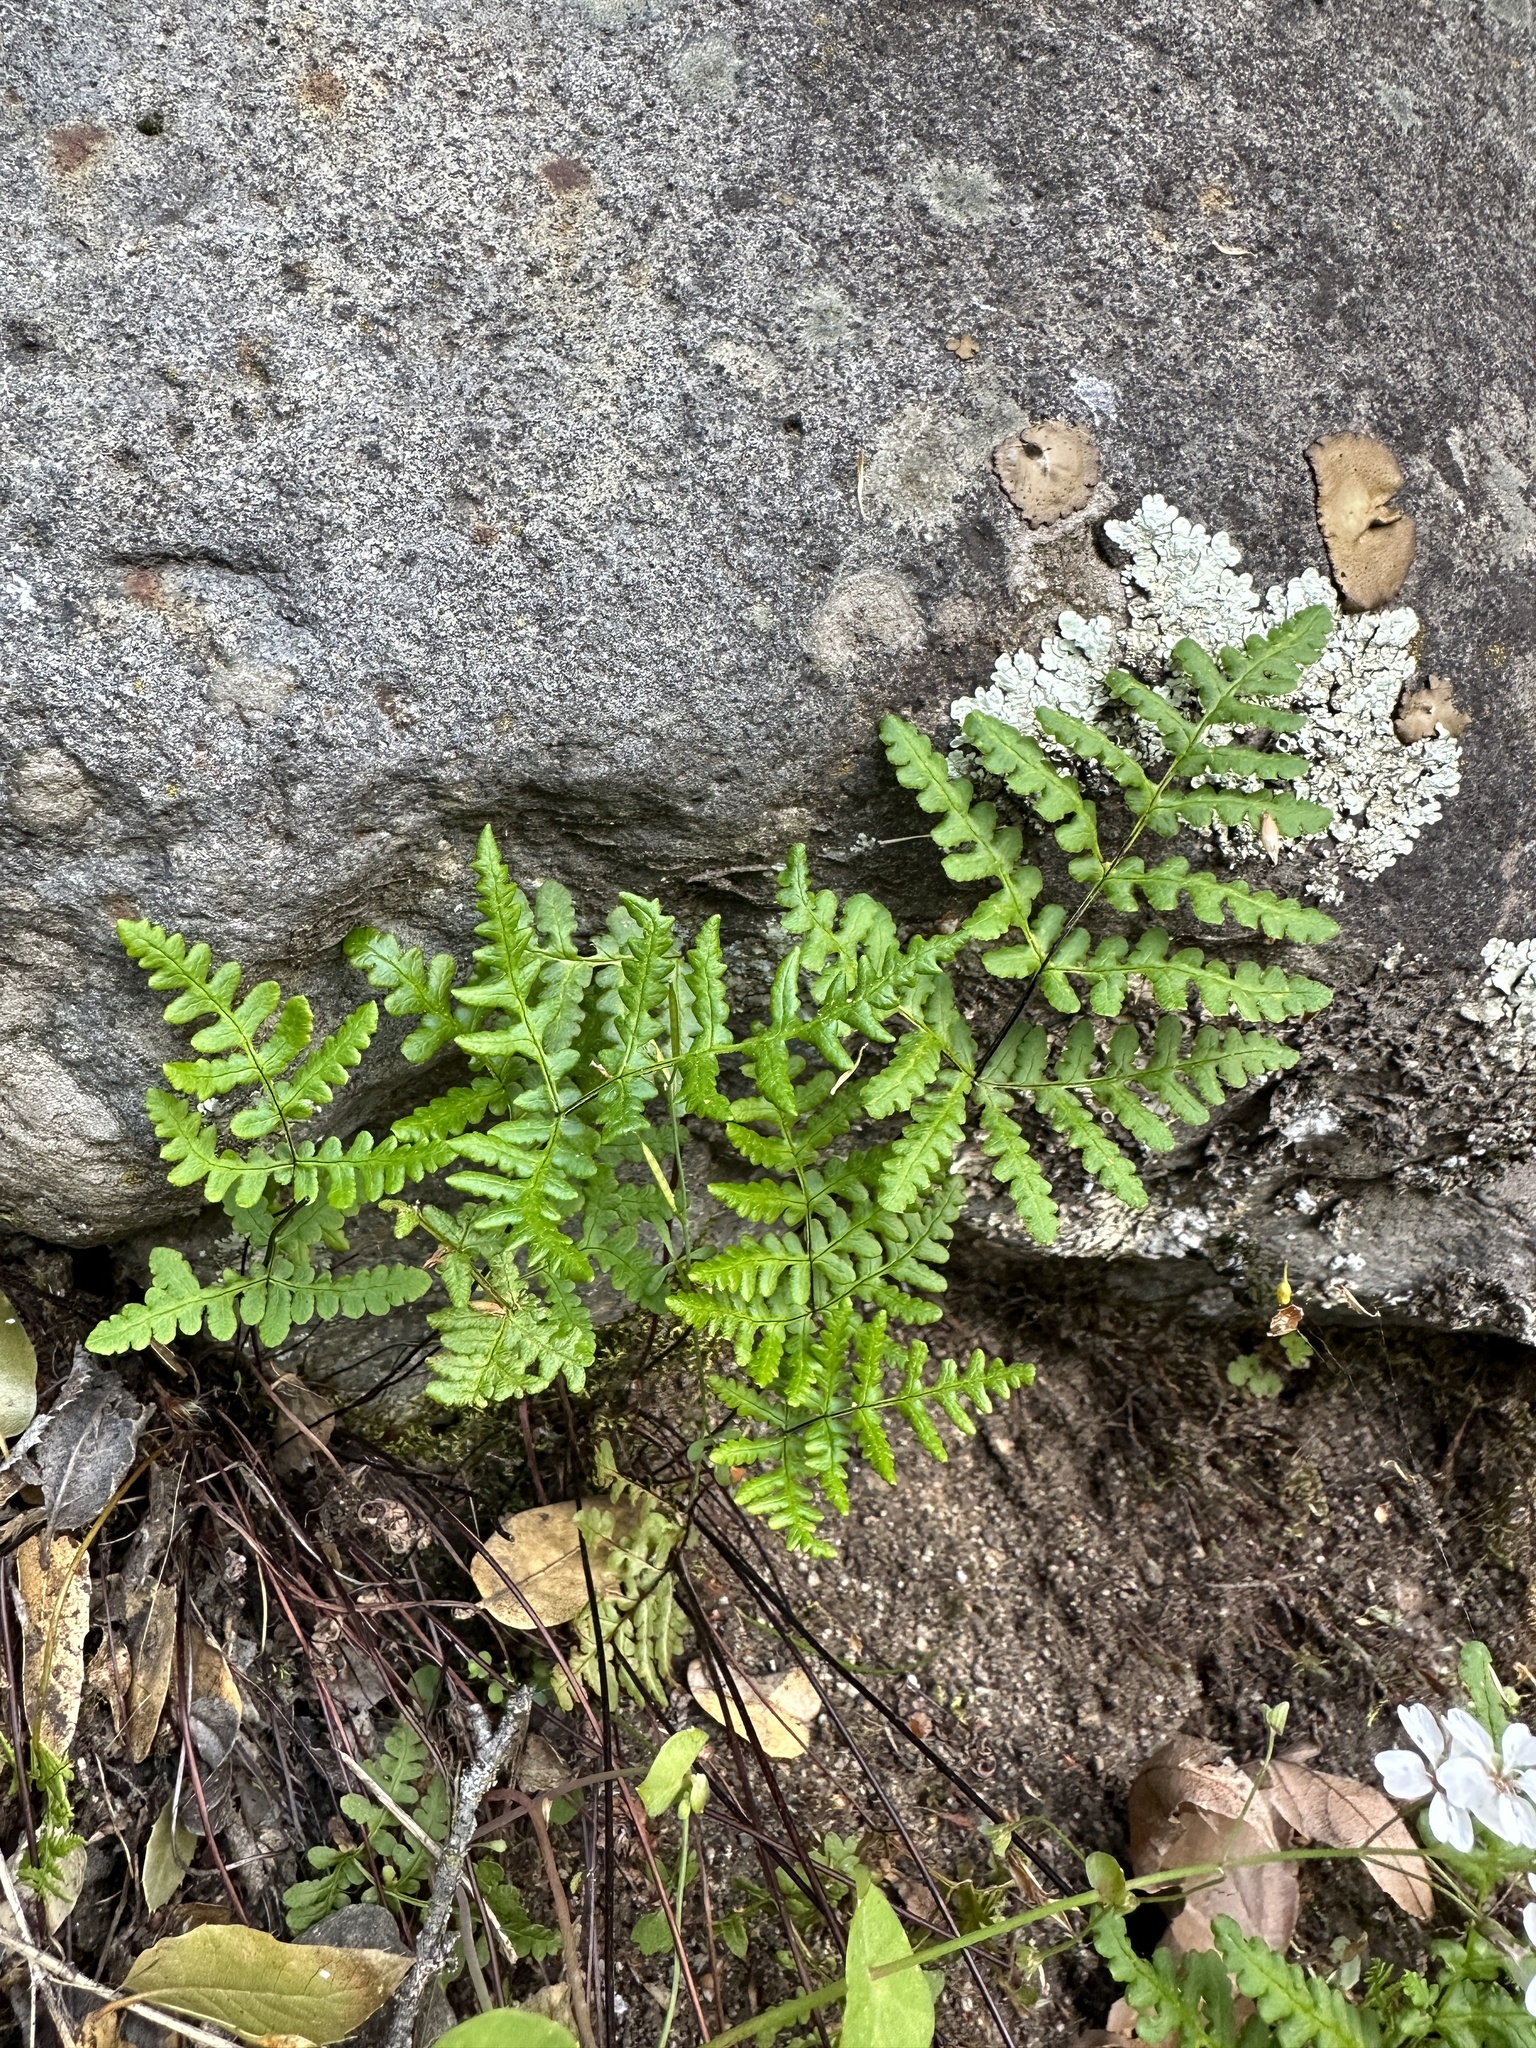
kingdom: Plantae
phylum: Tracheophyta
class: Polypodiopsida
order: Polypodiales
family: Pteridaceae
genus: Pentagramma
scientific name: Pentagramma triangularis
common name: Gold fern
